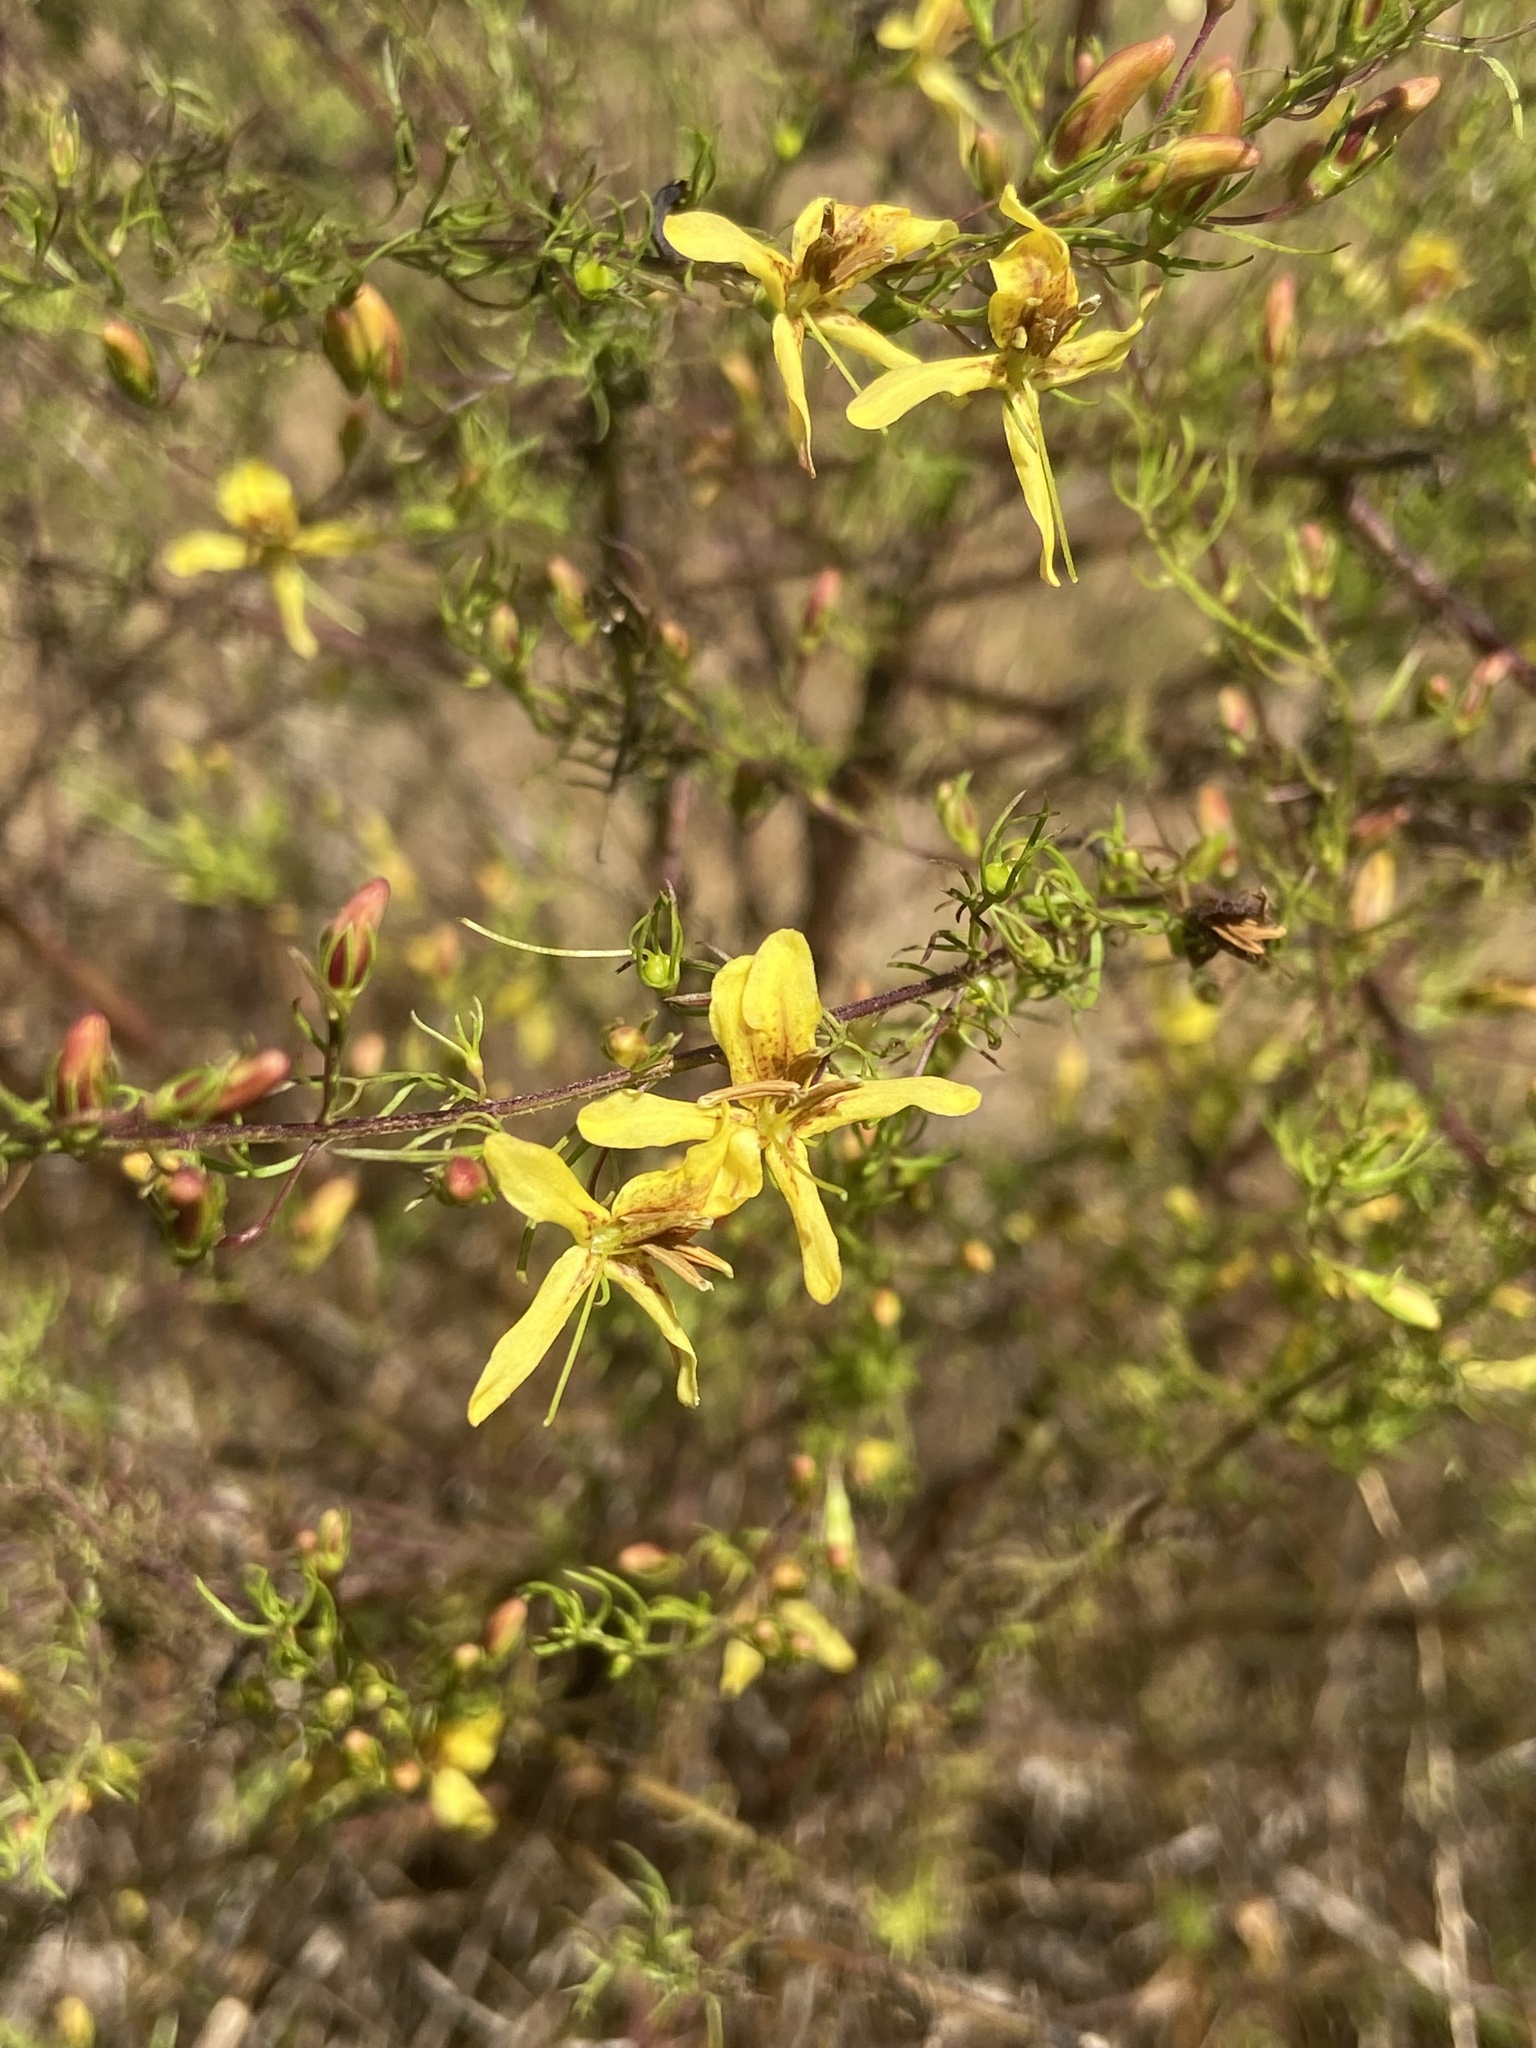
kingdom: Plantae
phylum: Tracheophyta
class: Magnoliopsida
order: Lamiales
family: Orobanchaceae
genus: Seymeria
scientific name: Seymeria cassioides
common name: Yaupon black-senna
